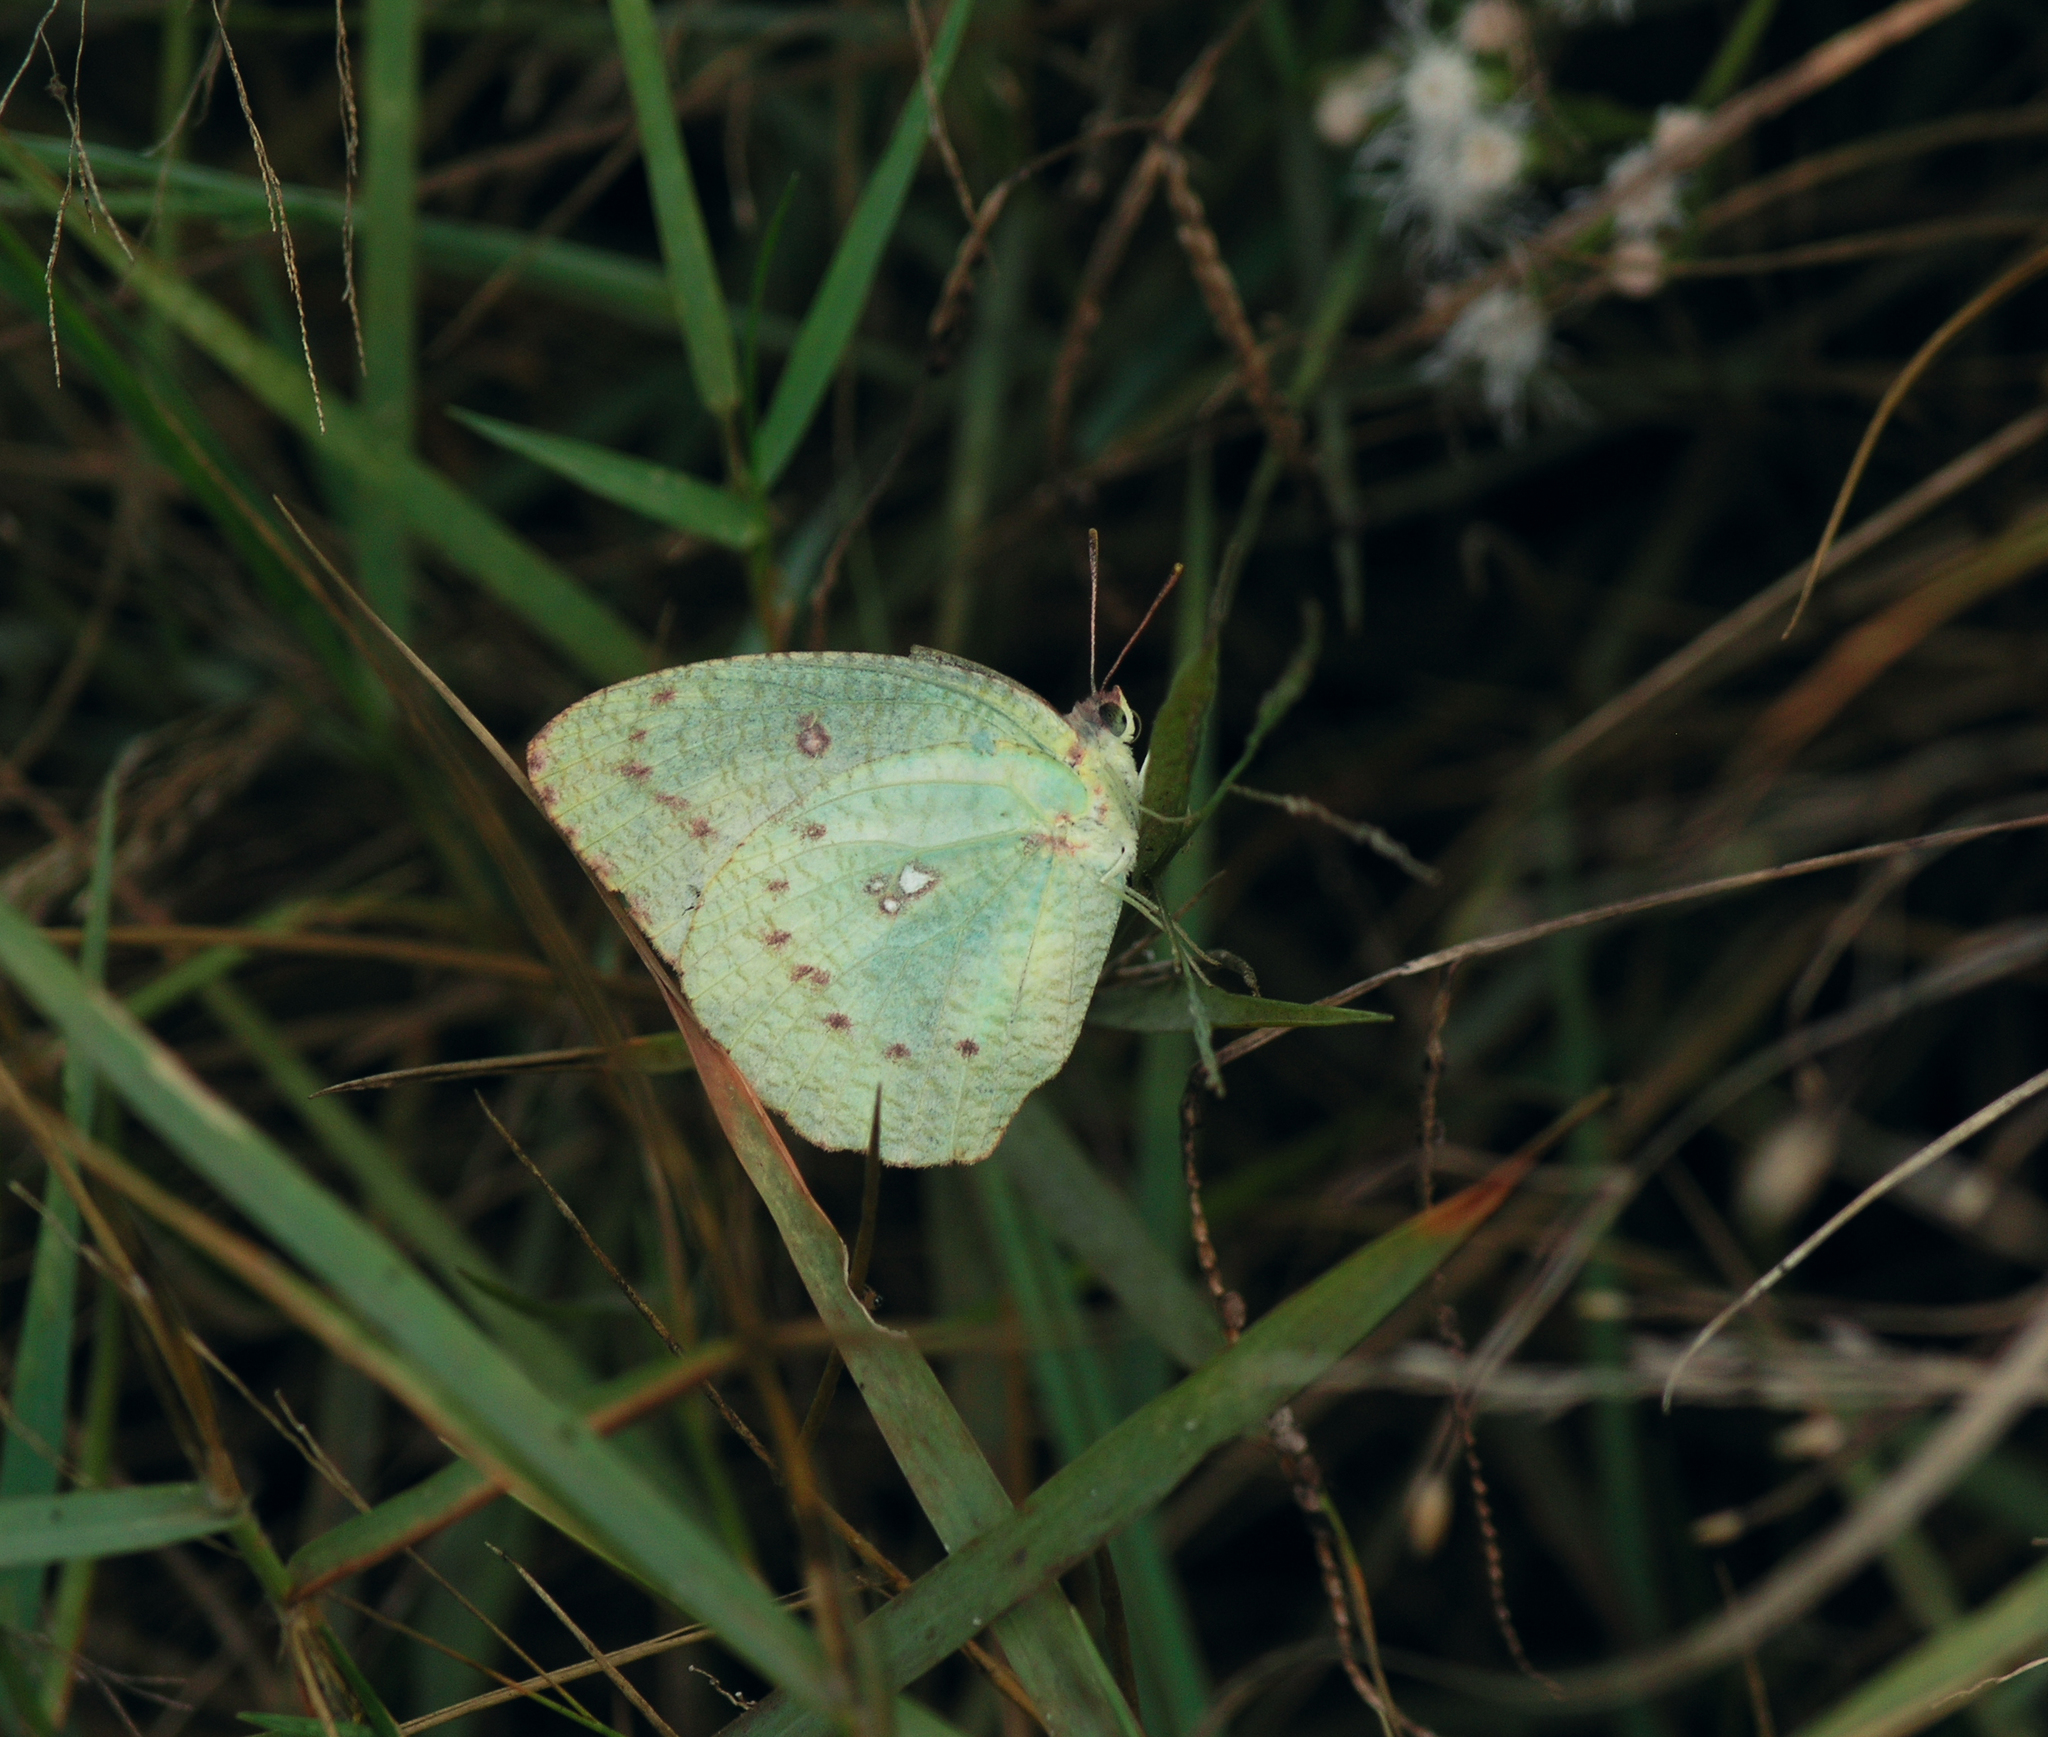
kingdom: Animalia
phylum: Arthropoda
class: Insecta
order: Lepidoptera
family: Pieridae
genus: Catopsilia
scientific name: Catopsilia pyranthe
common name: Mottled emigrant
